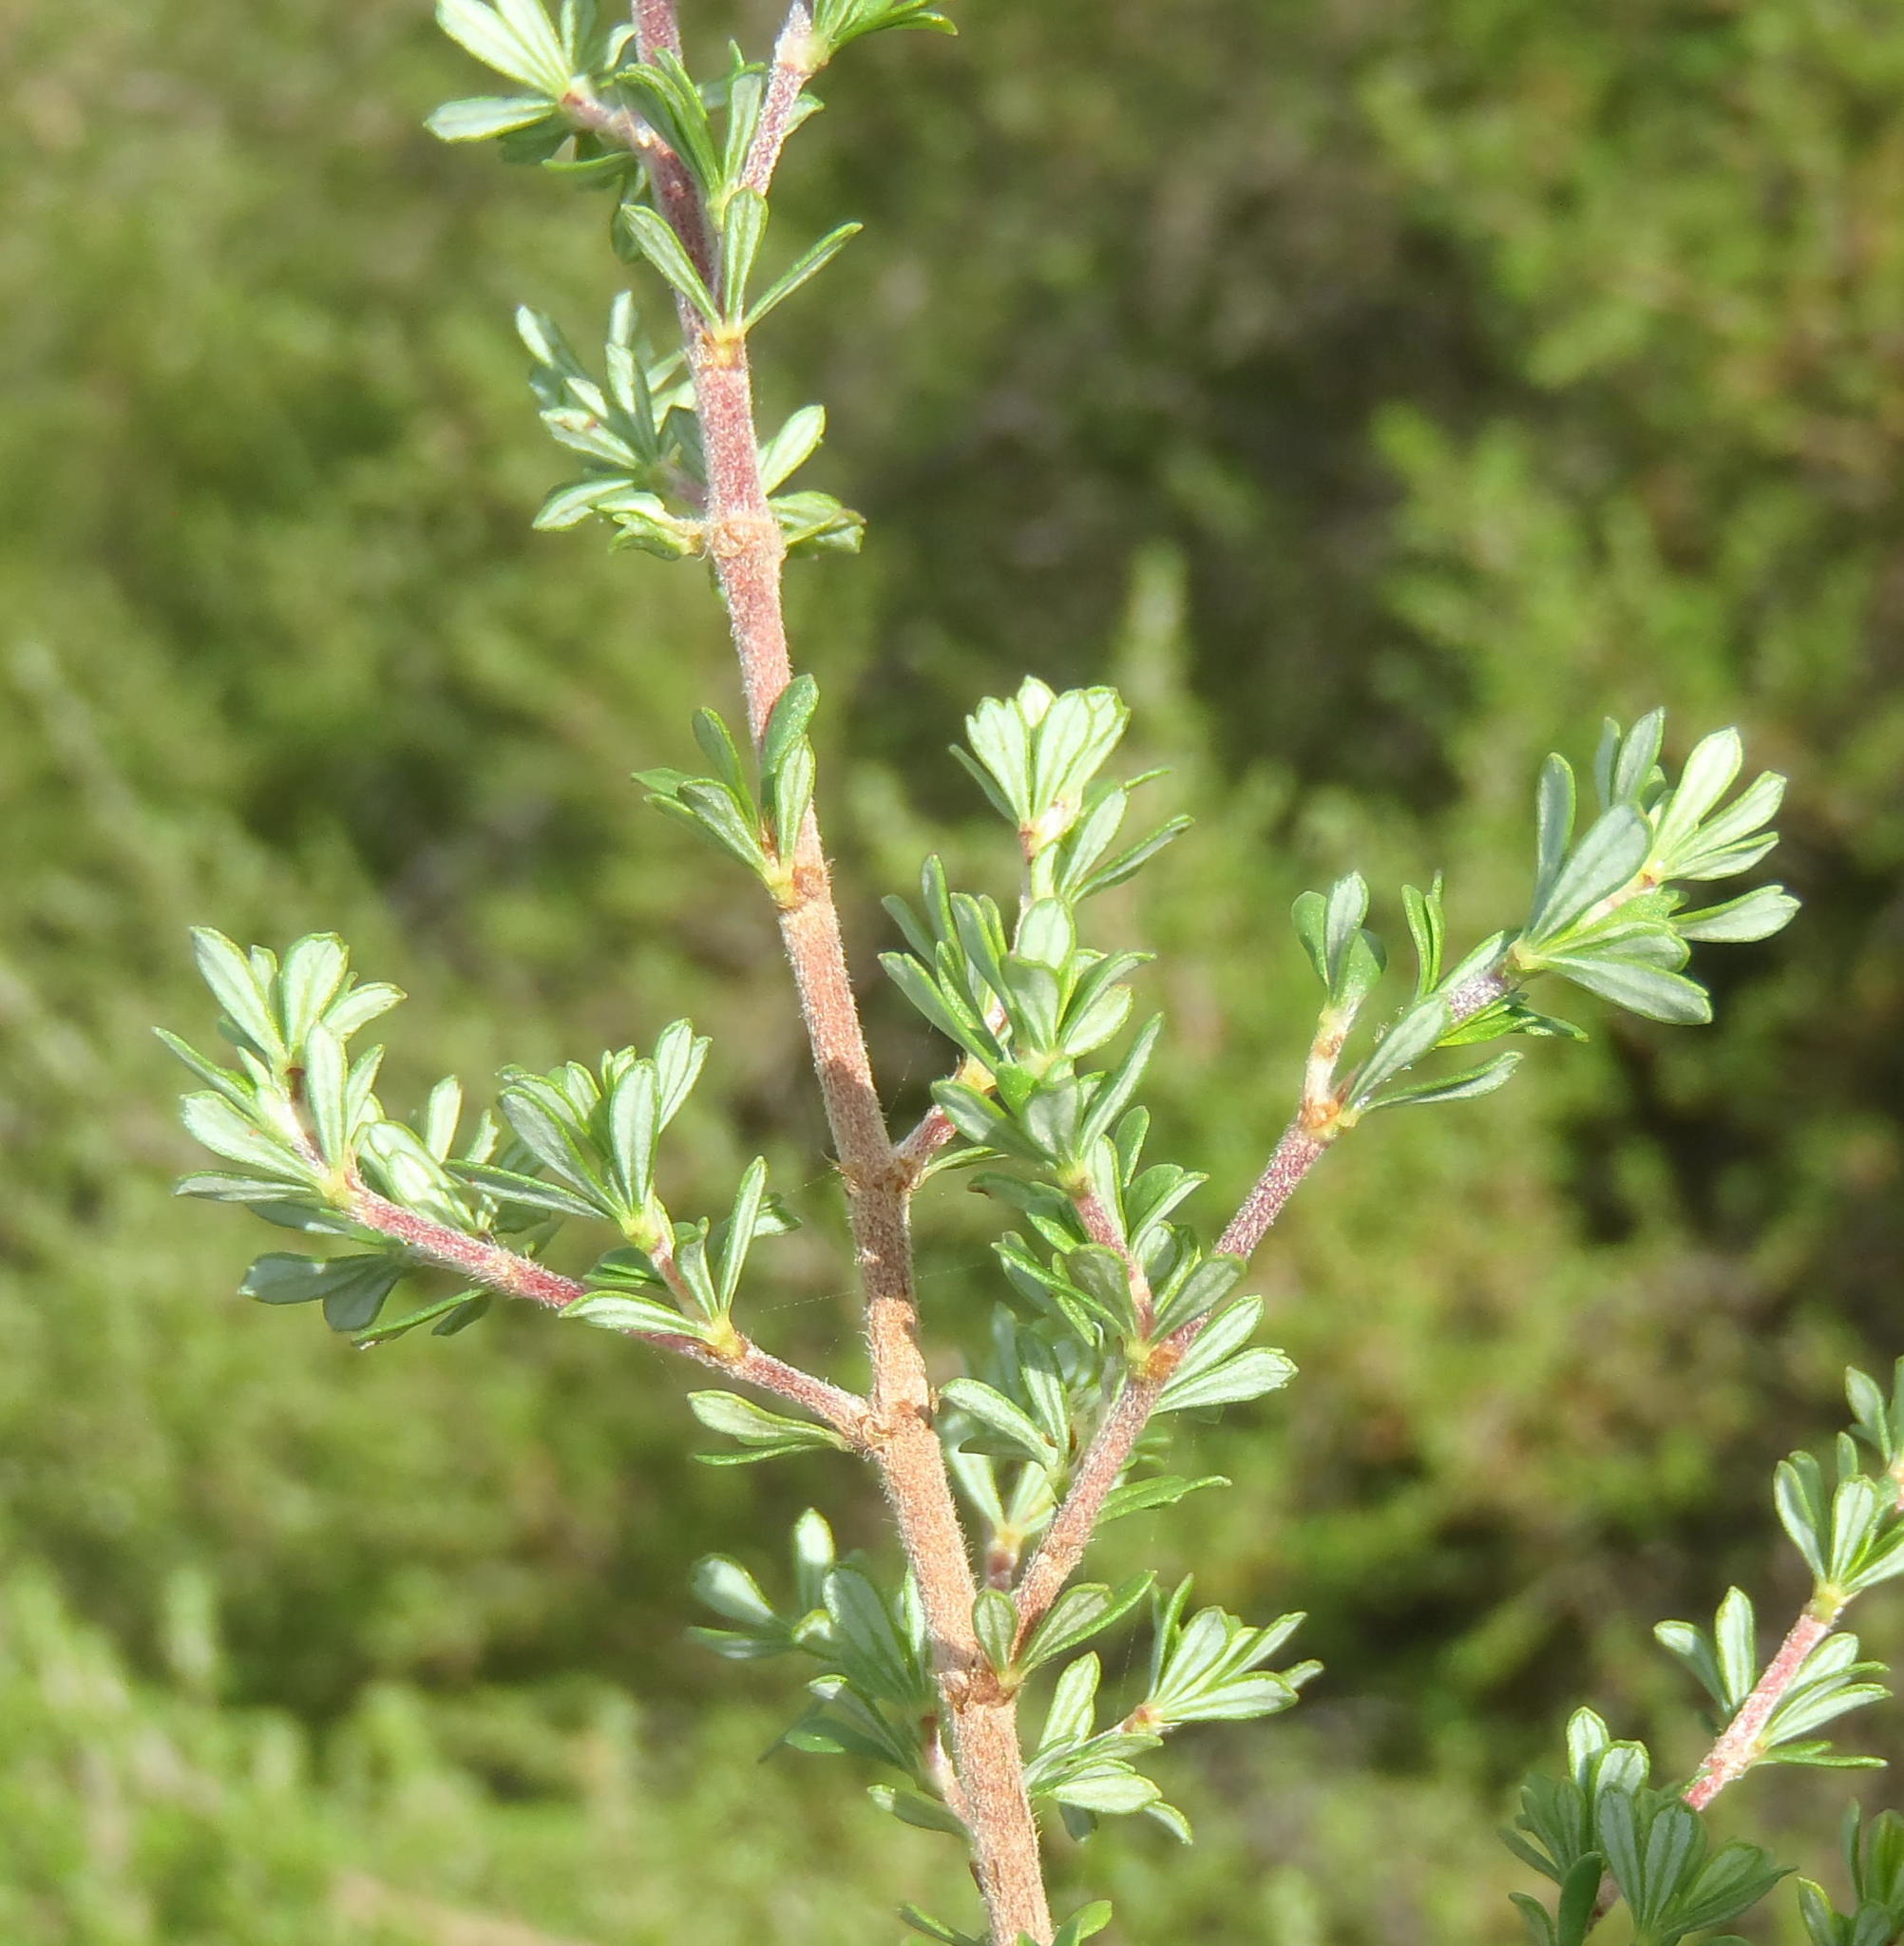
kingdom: Plantae
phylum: Tracheophyta
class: Magnoliopsida
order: Rosales
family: Rosaceae
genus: Cliffortia
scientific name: Cliffortia serpyllifolia
